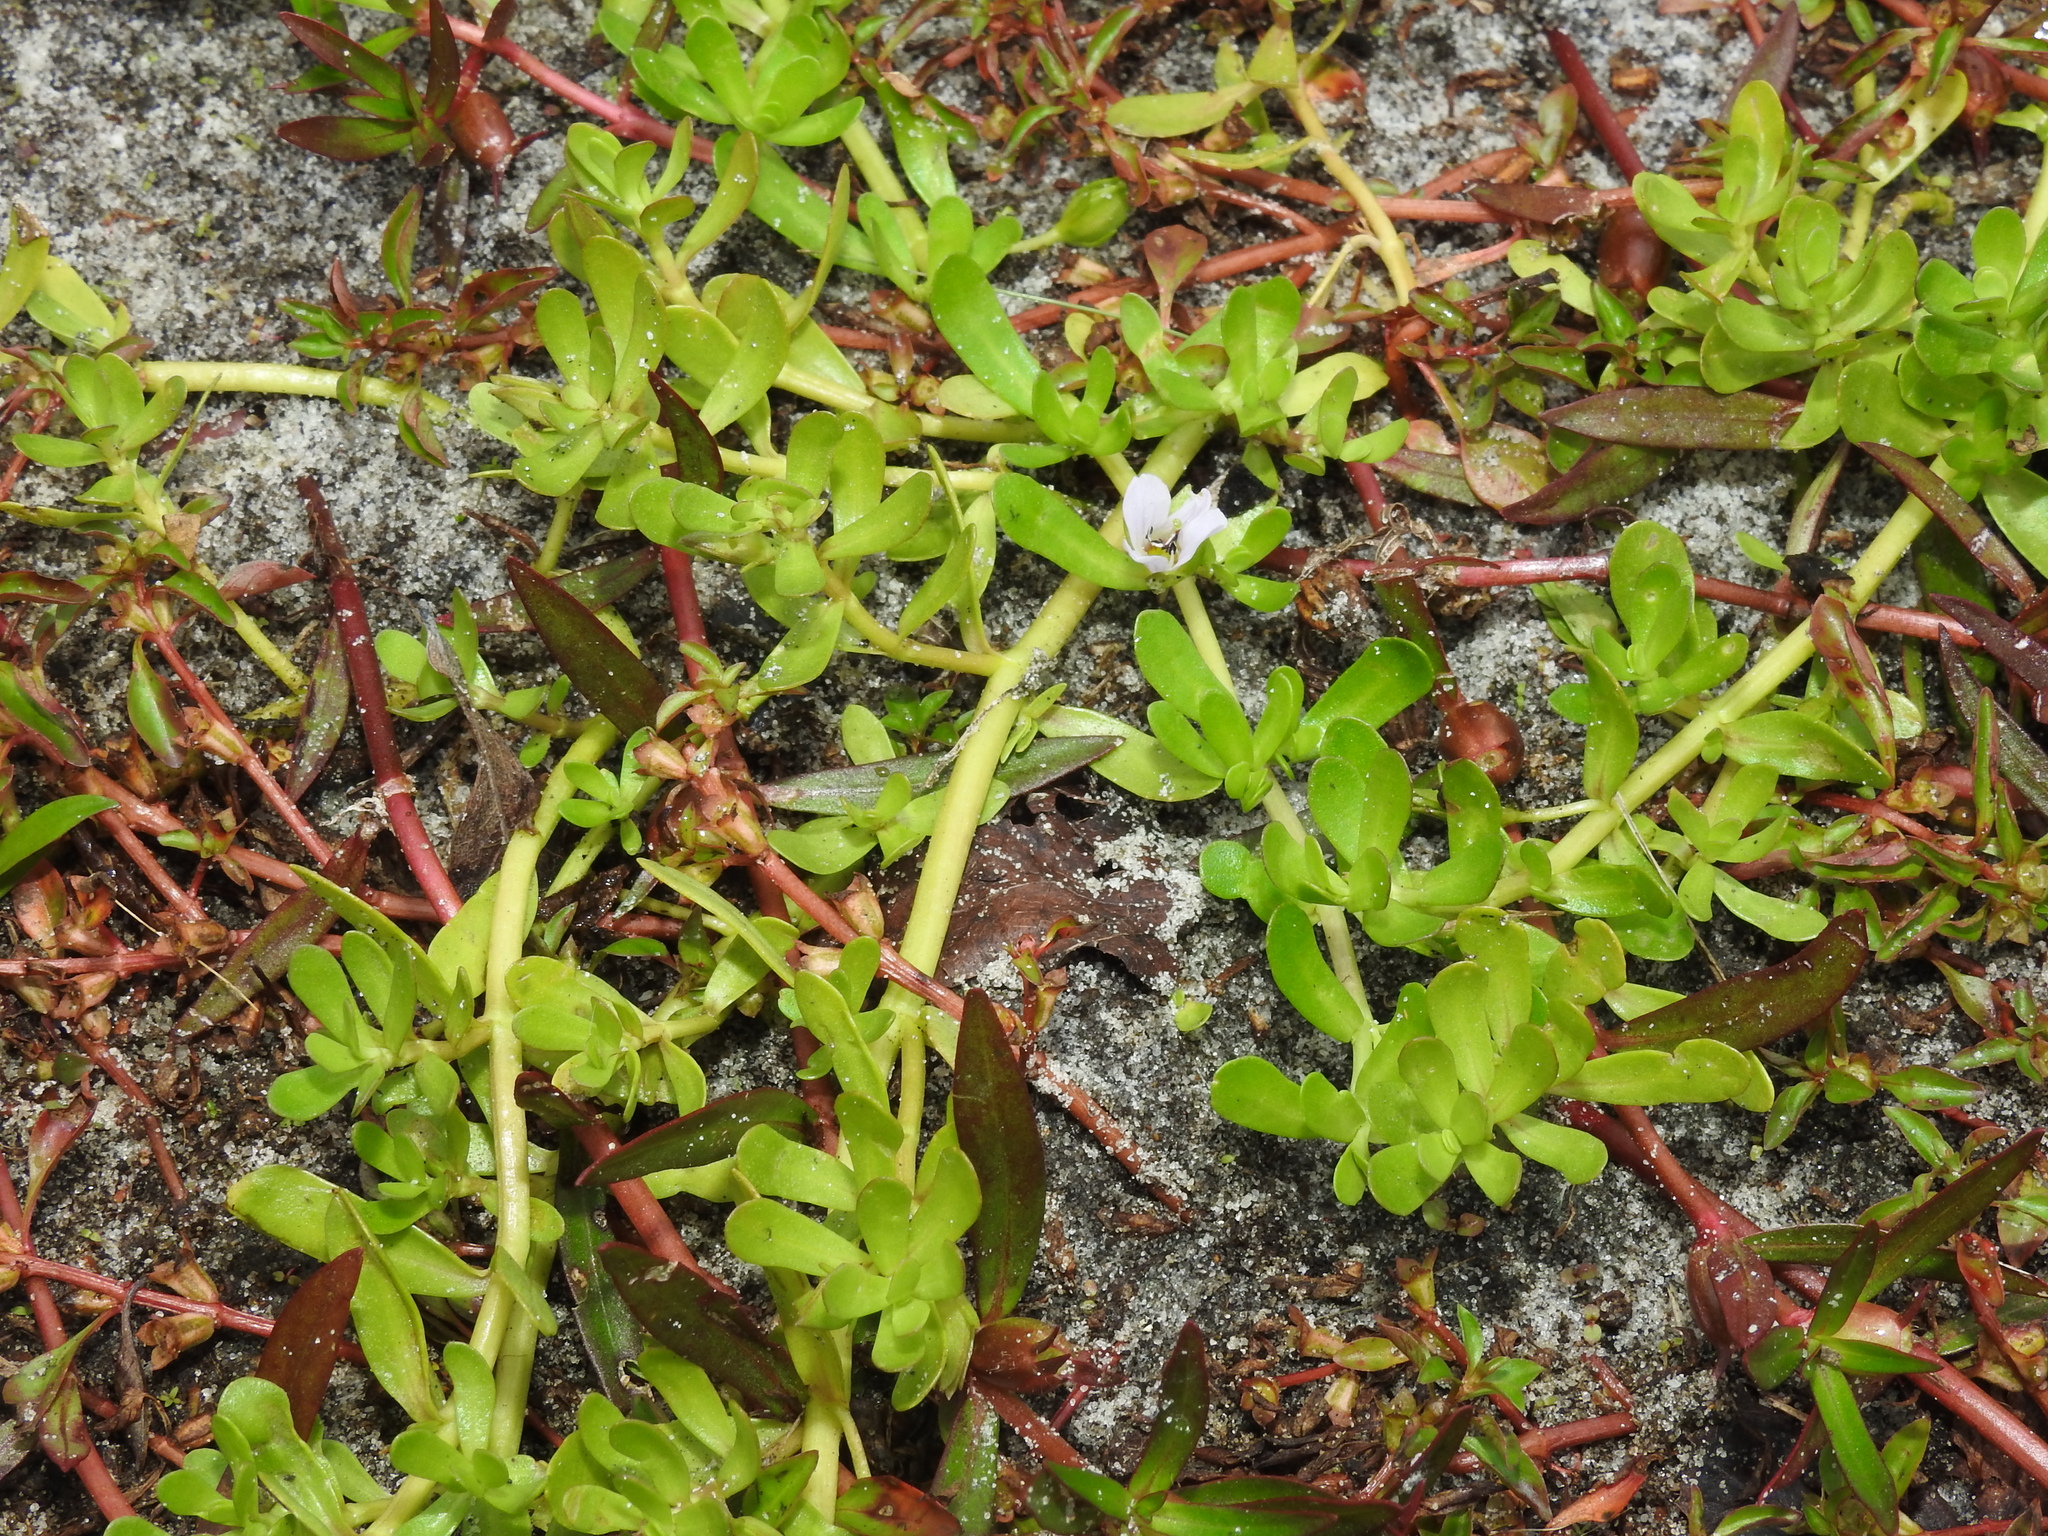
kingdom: Plantae
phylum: Tracheophyta
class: Magnoliopsida
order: Lamiales
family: Plantaginaceae
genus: Bacopa
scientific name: Bacopa monnieri
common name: Indian-pennywort
